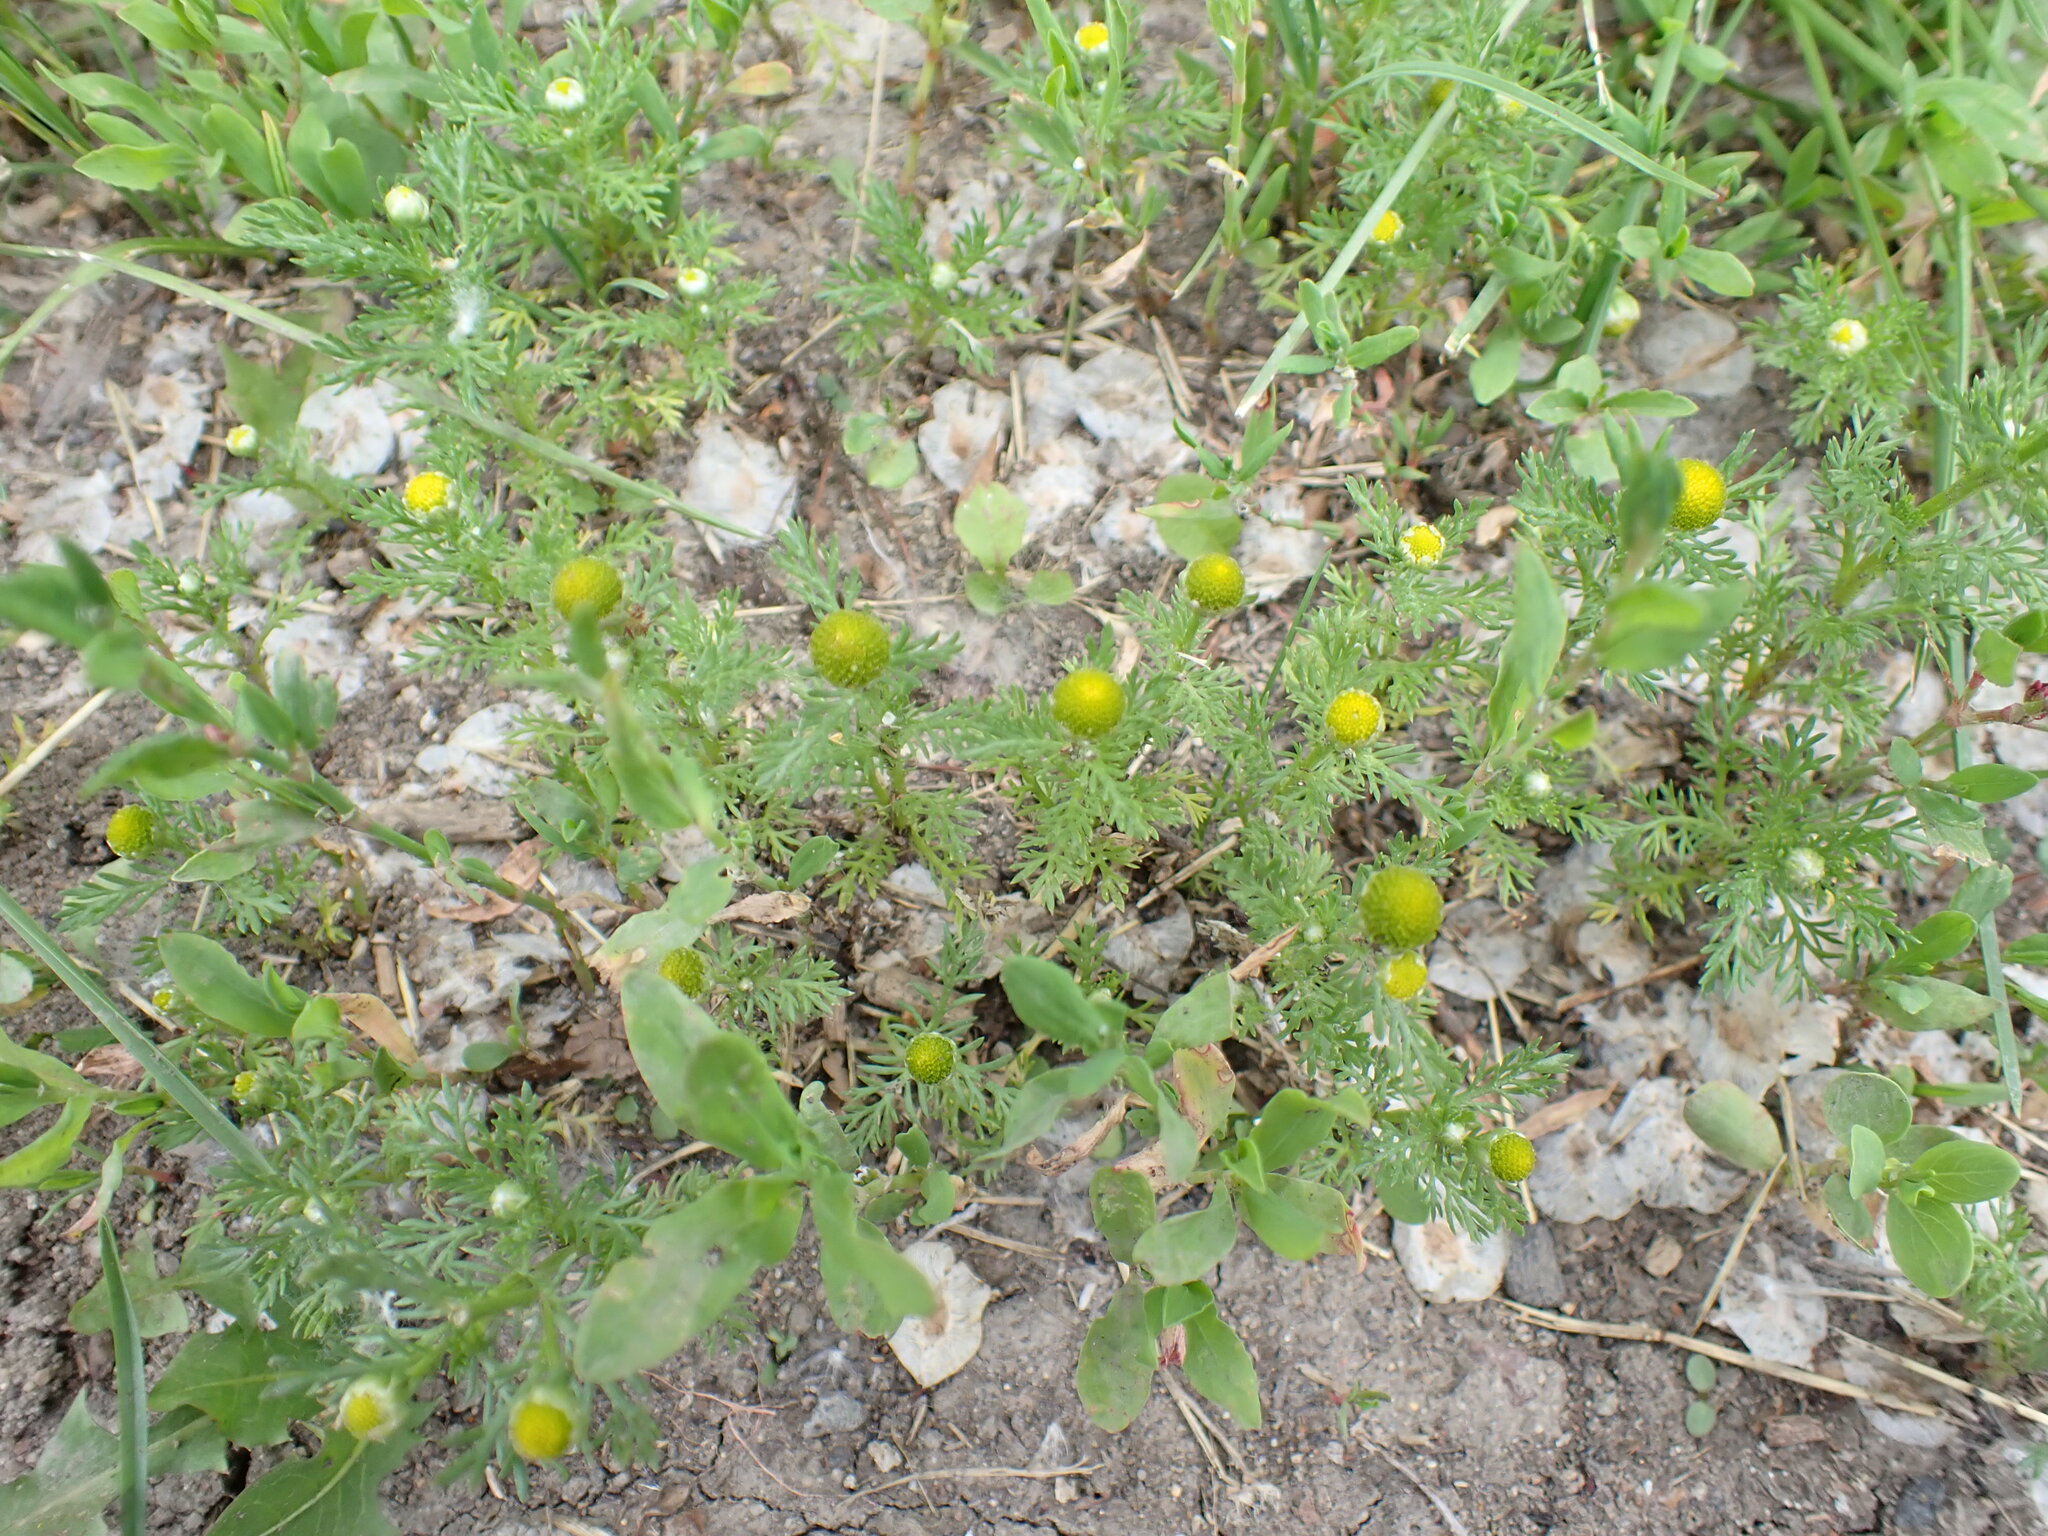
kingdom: Plantae
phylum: Tracheophyta
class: Magnoliopsida
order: Asterales
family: Asteraceae
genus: Matricaria
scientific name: Matricaria discoidea
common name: Disc mayweed
